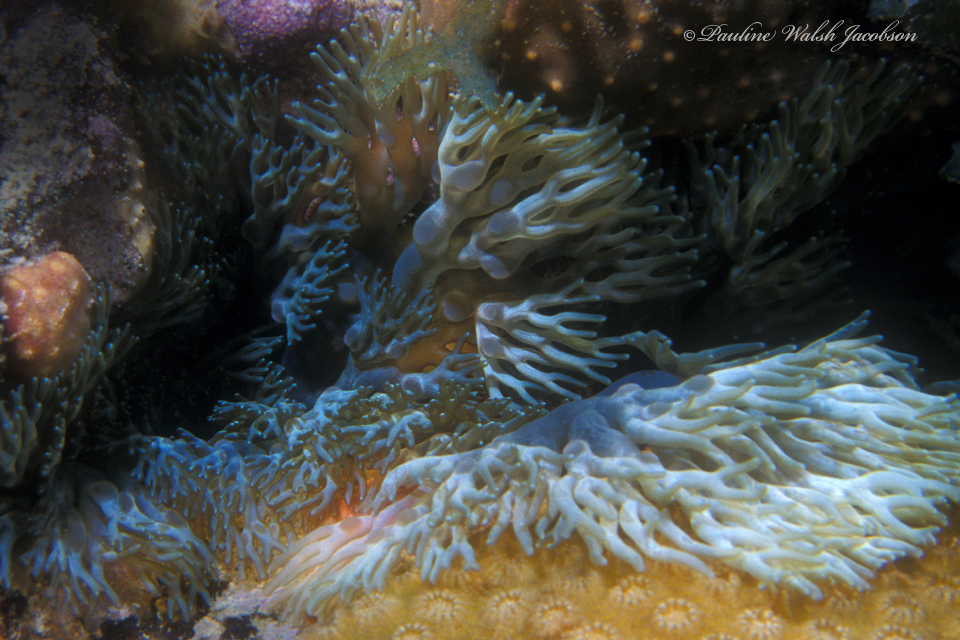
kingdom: Animalia
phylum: Cnidaria
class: Anthozoa
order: Actiniaria
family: Aliciidae
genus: Lebrunia
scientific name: Lebrunia neglecta
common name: Branching anemone
